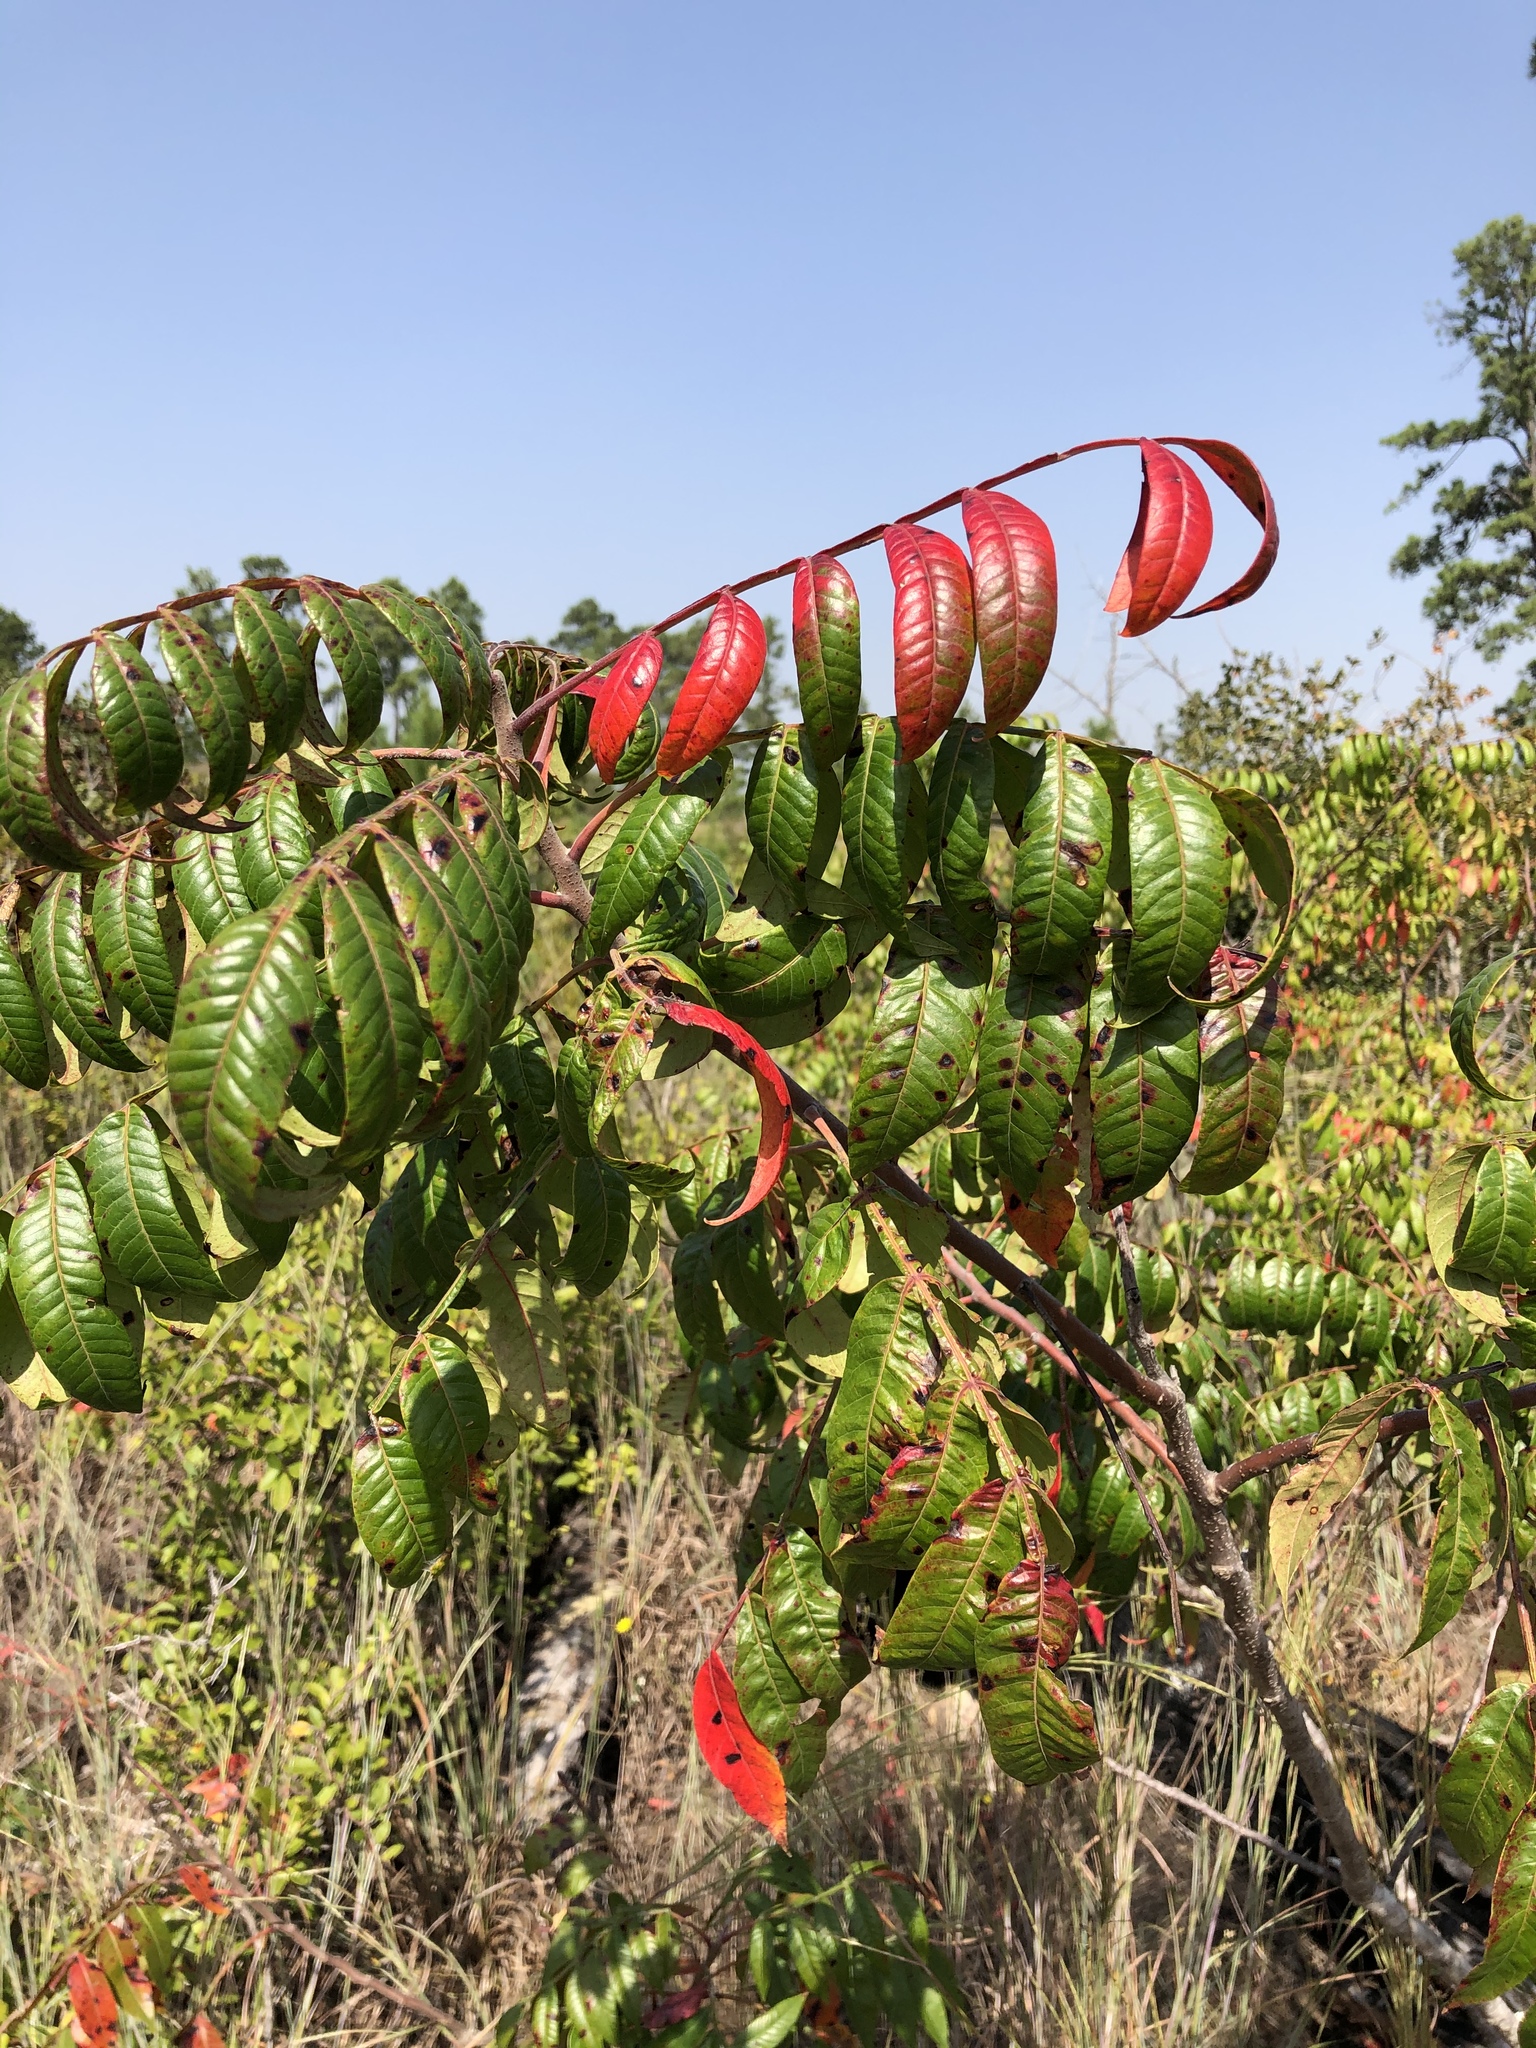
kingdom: Plantae
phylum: Tracheophyta
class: Magnoliopsida
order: Sapindales
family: Anacardiaceae
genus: Rhus
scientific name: Rhus copallina
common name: Shining sumac
